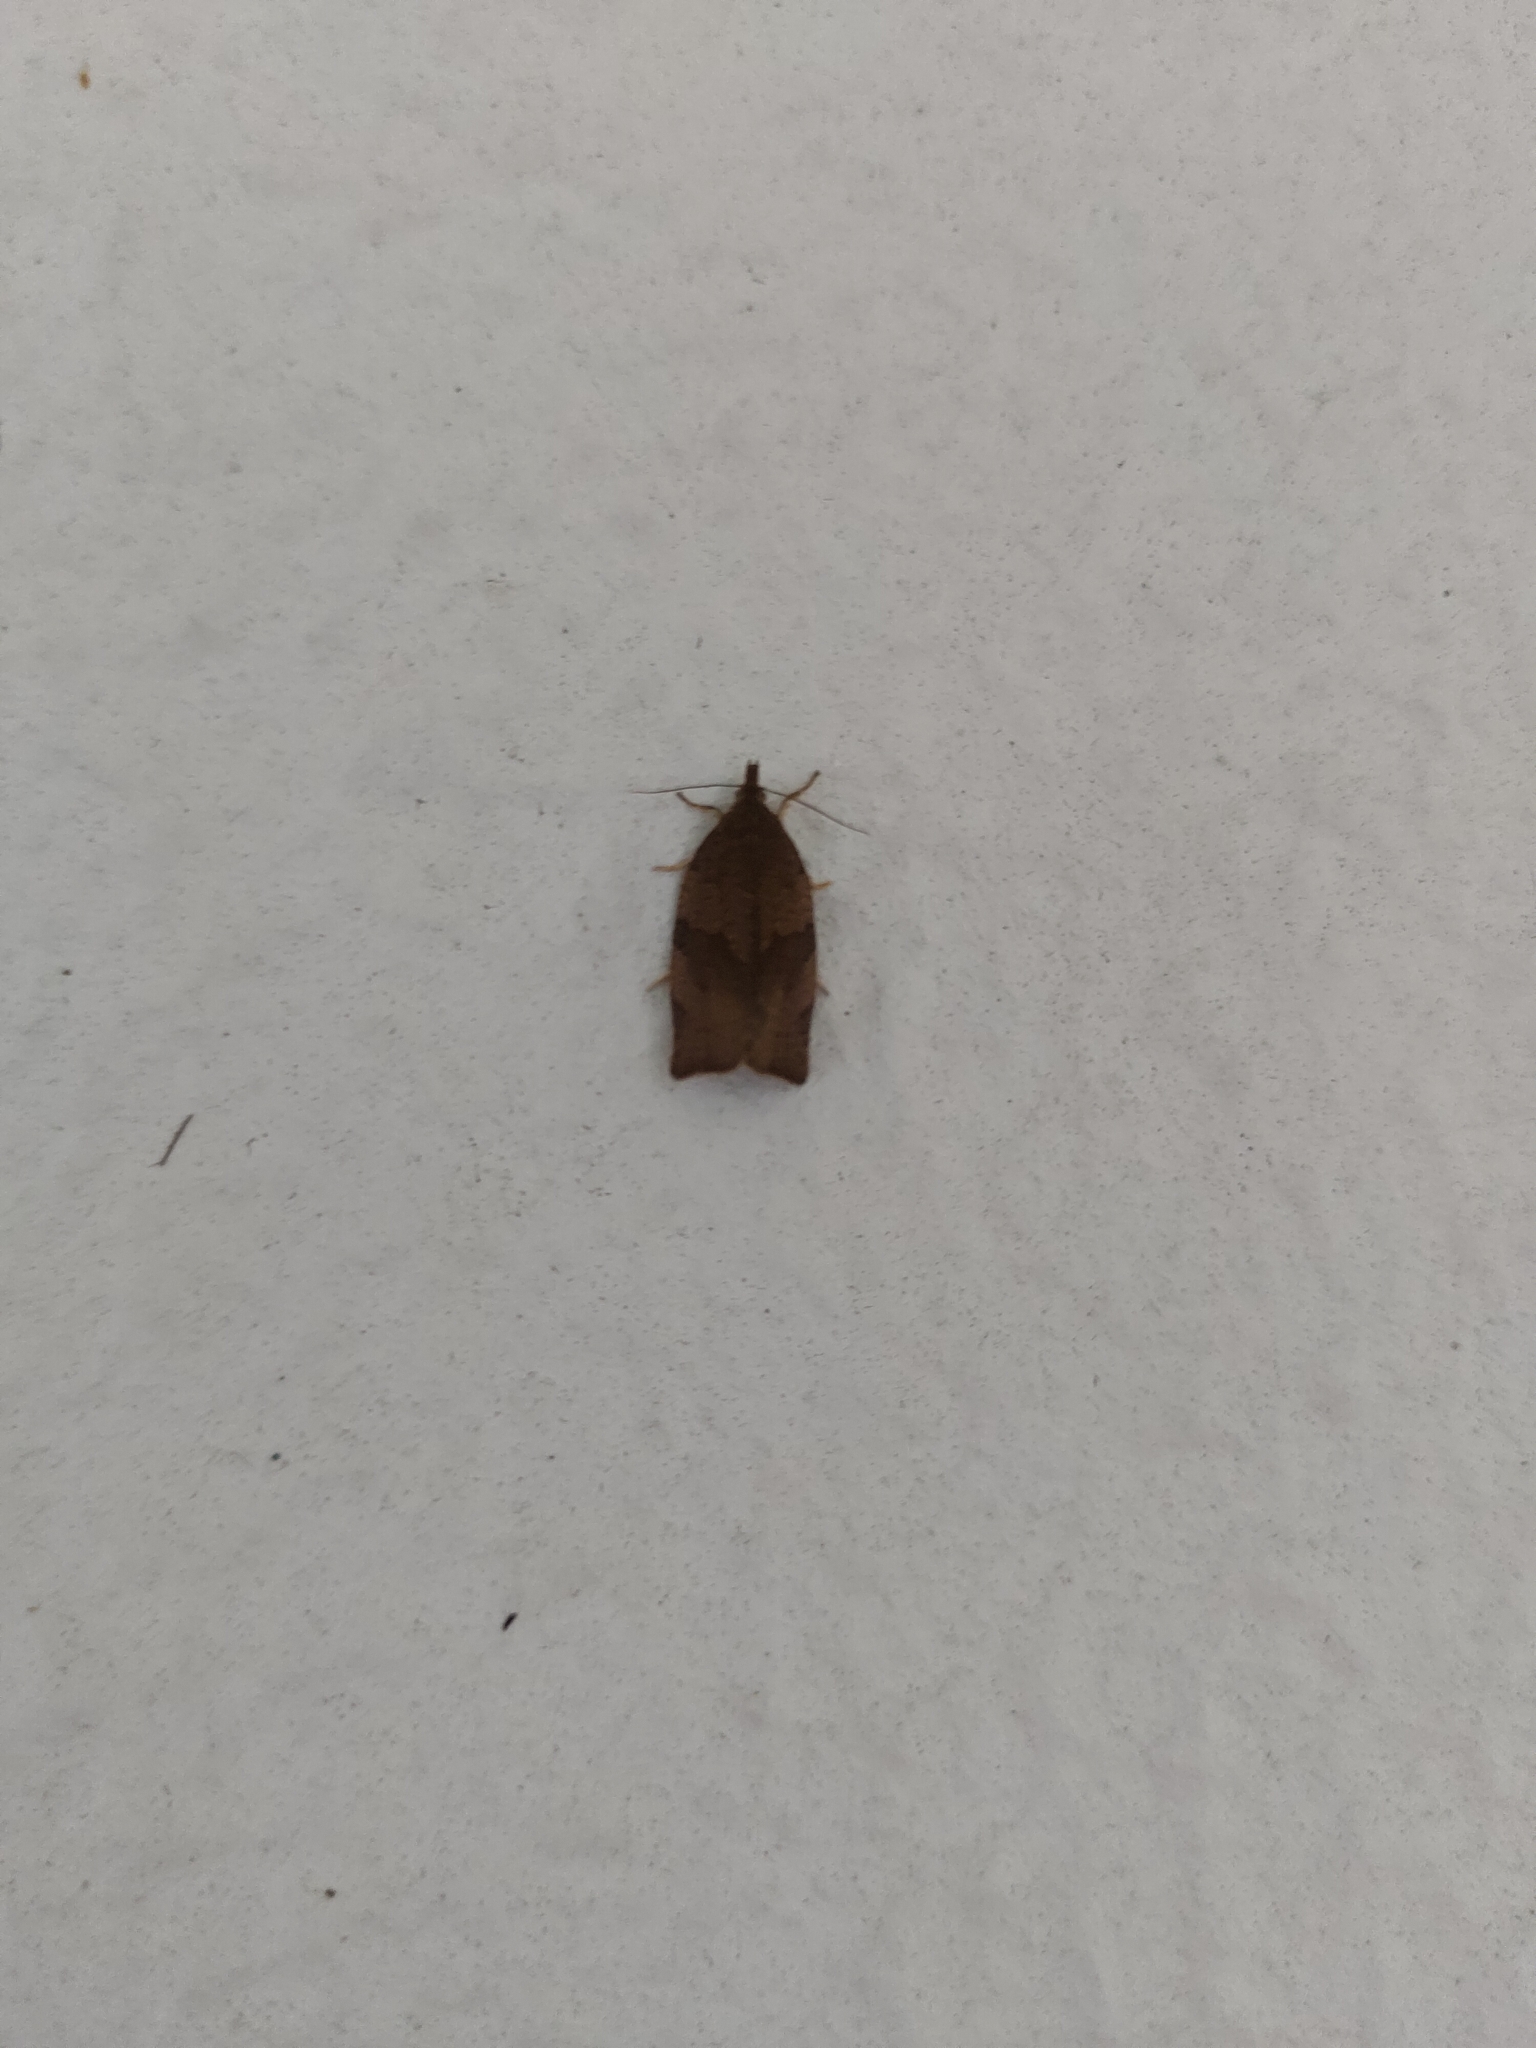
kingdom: Animalia
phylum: Arthropoda
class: Insecta
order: Lepidoptera
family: Tortricidae
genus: Pandemis
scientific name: Pandemis heparana
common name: Dark fruit-tree tortrix
